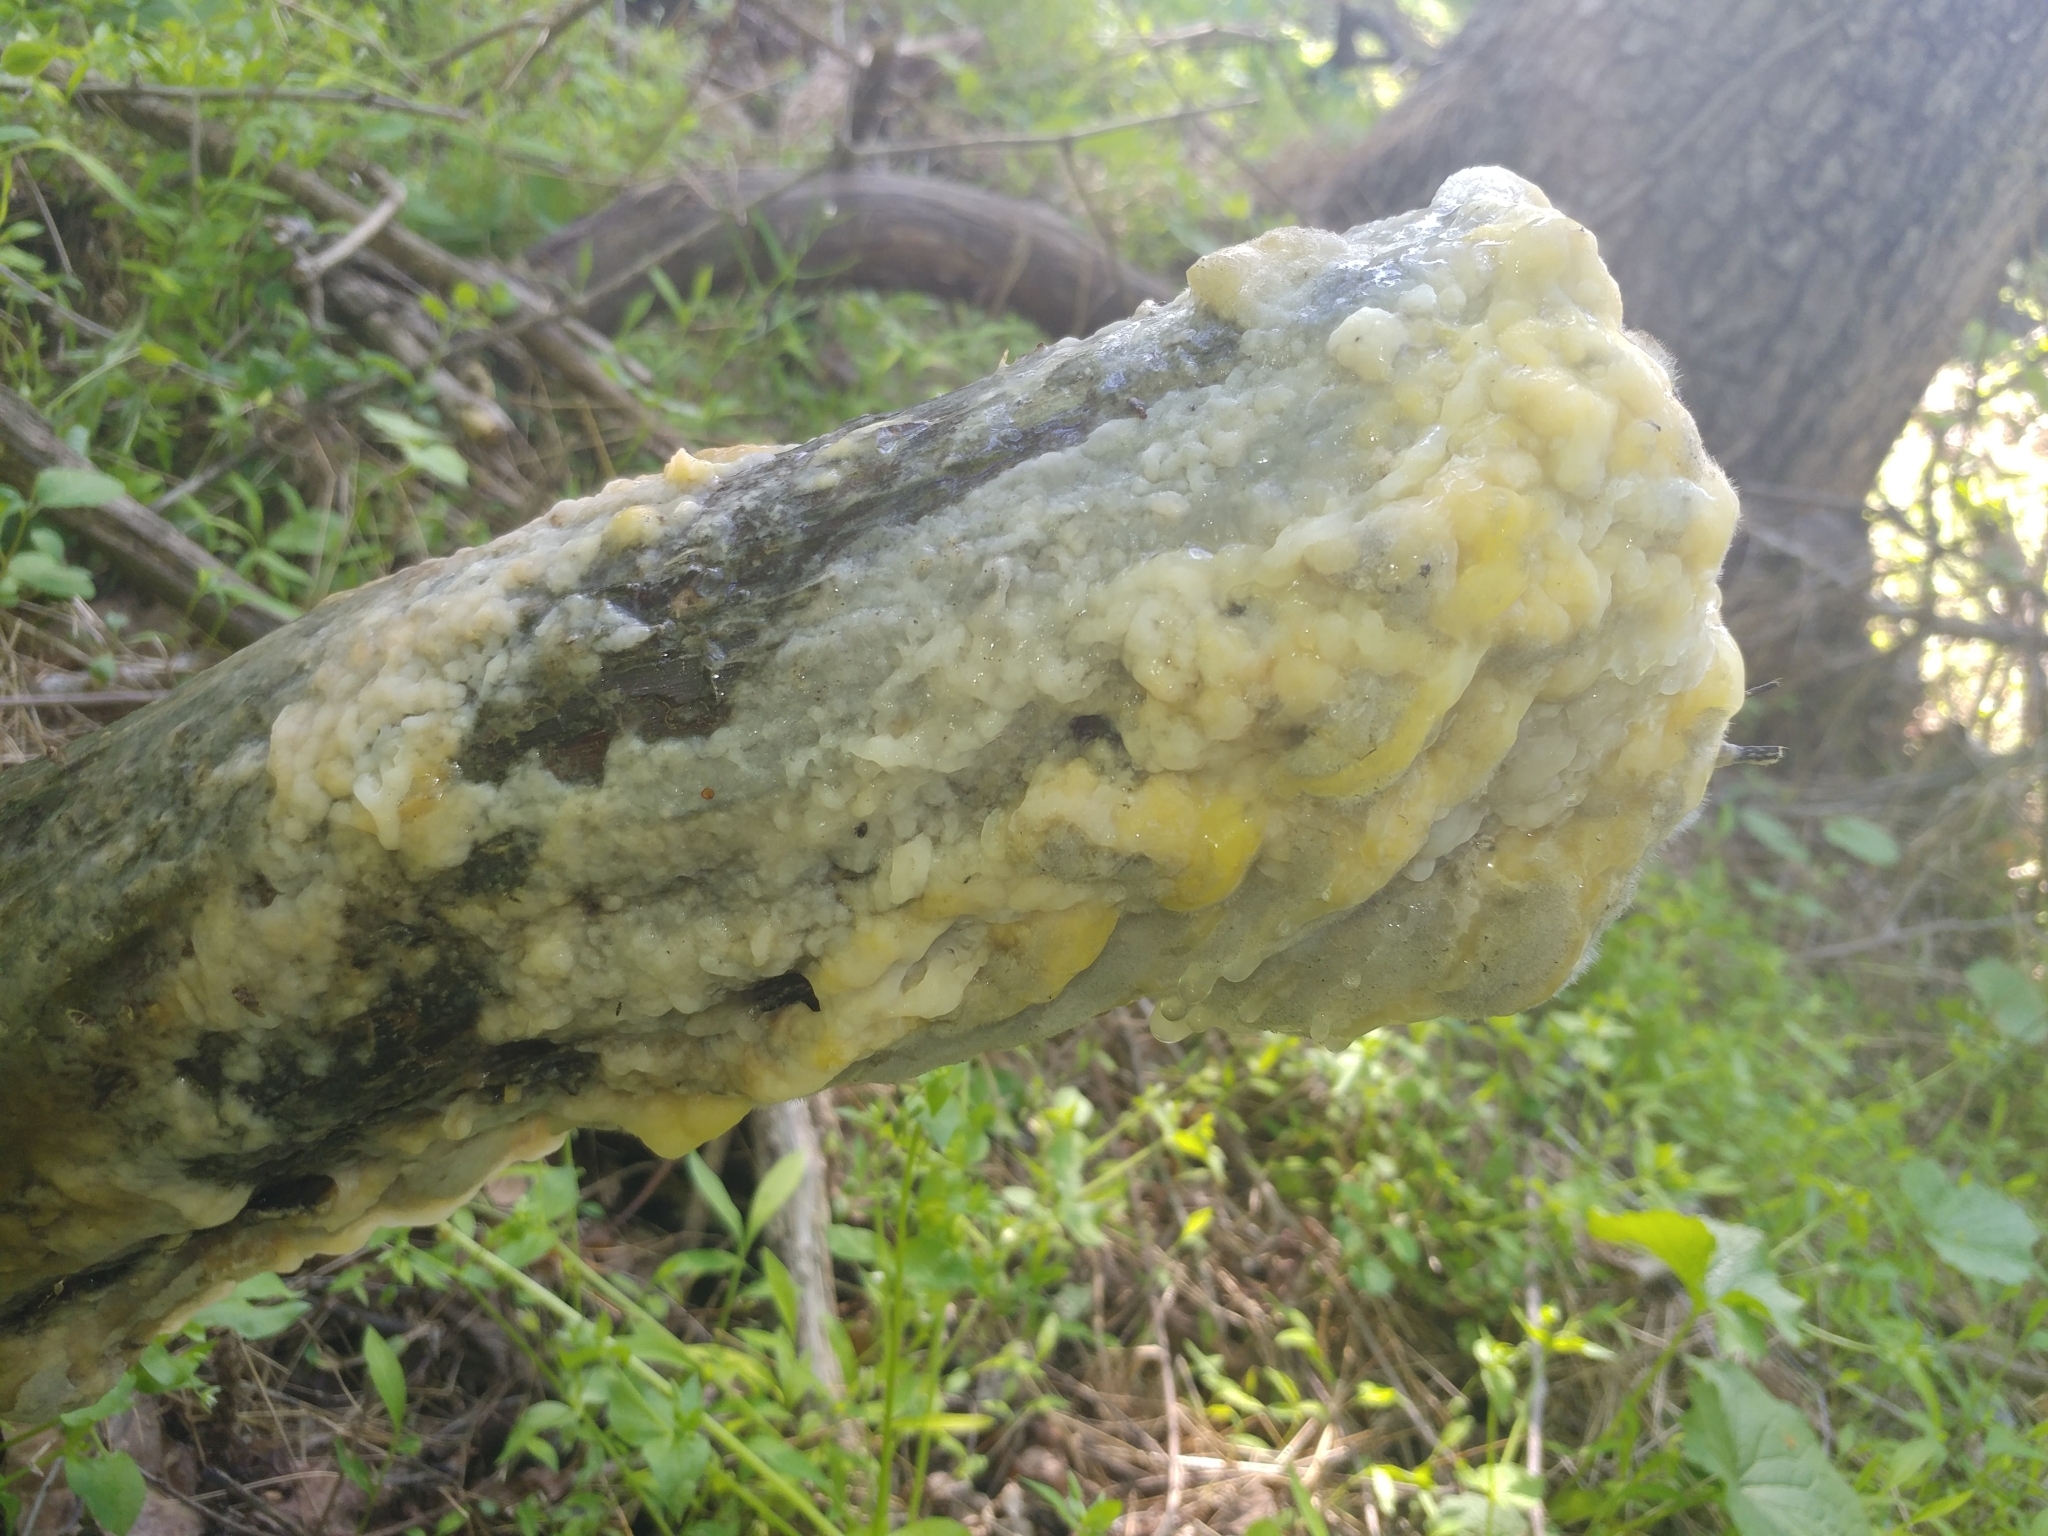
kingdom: Bacteria
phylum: Proteobacteria
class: Gammaproteobacteria
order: Enterobacterales
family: Enterobacteriaceae
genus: Pectobacterium
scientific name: Pectobacterium carotovorum
